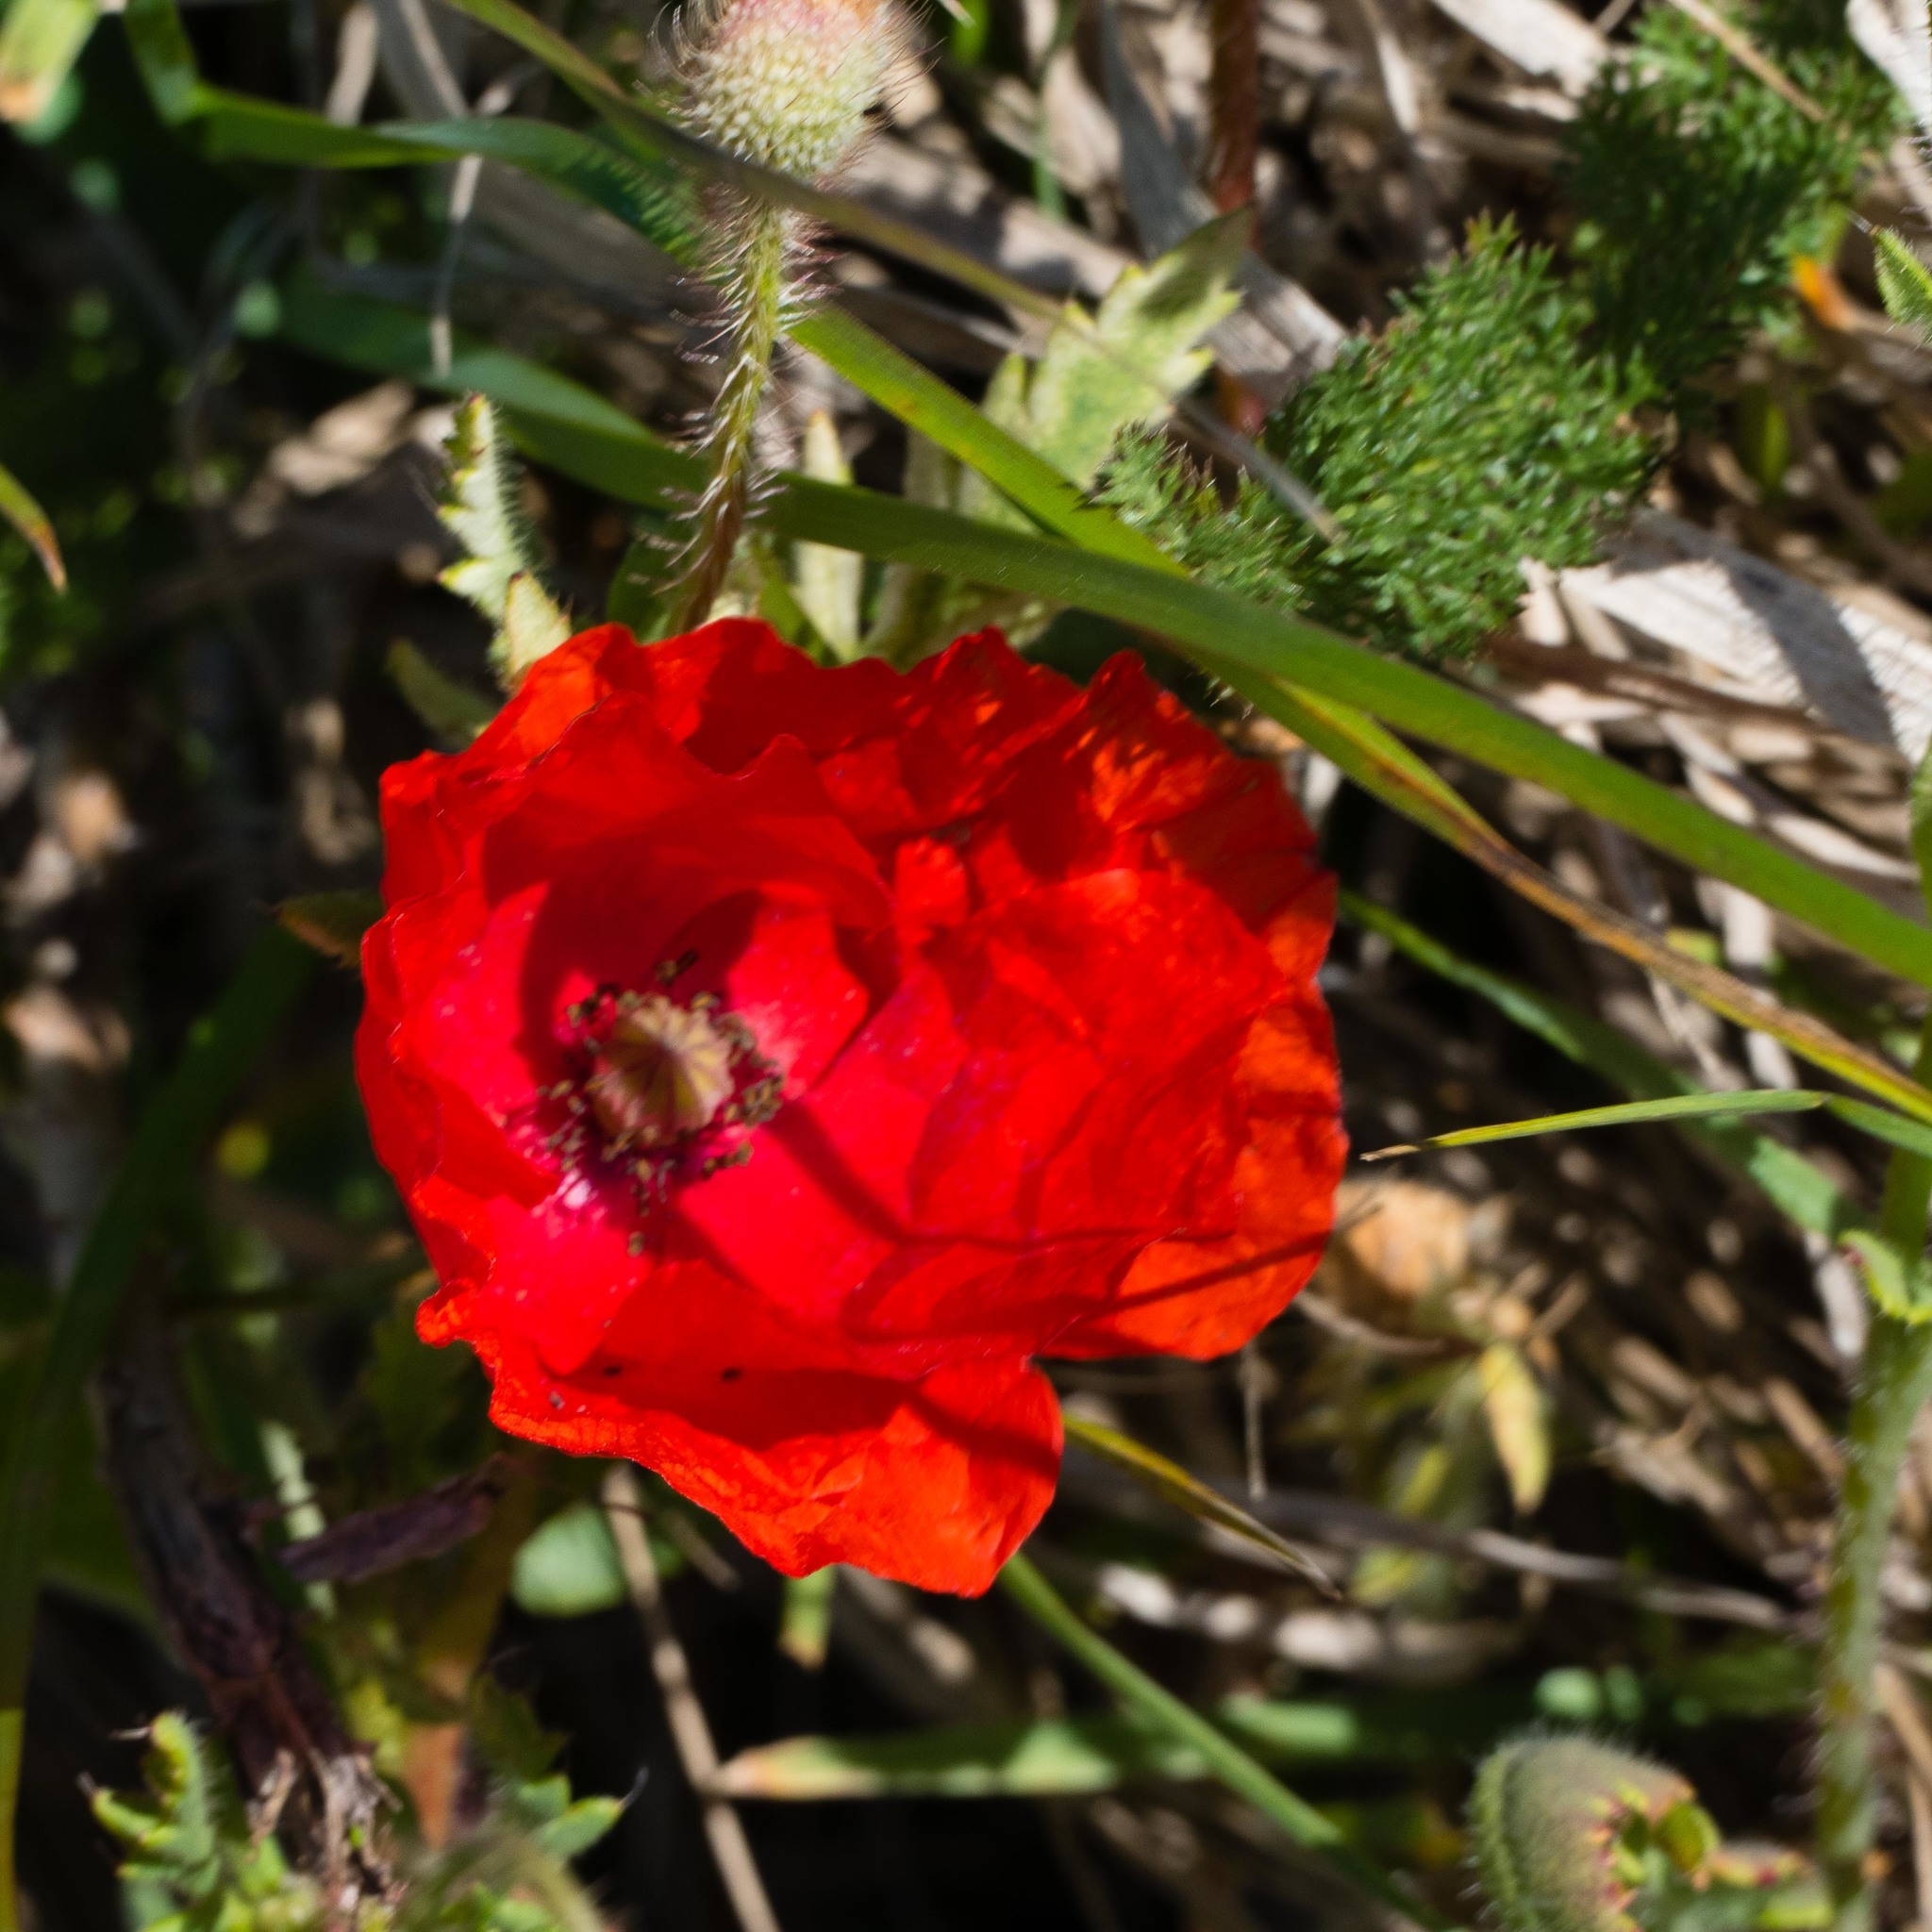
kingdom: Plantae
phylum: Tracheophyta
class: Magnoliopsida
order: Ranunculales
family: Papaveraceae
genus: Papaver
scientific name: Papaver rhoeas
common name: Corn poppy
